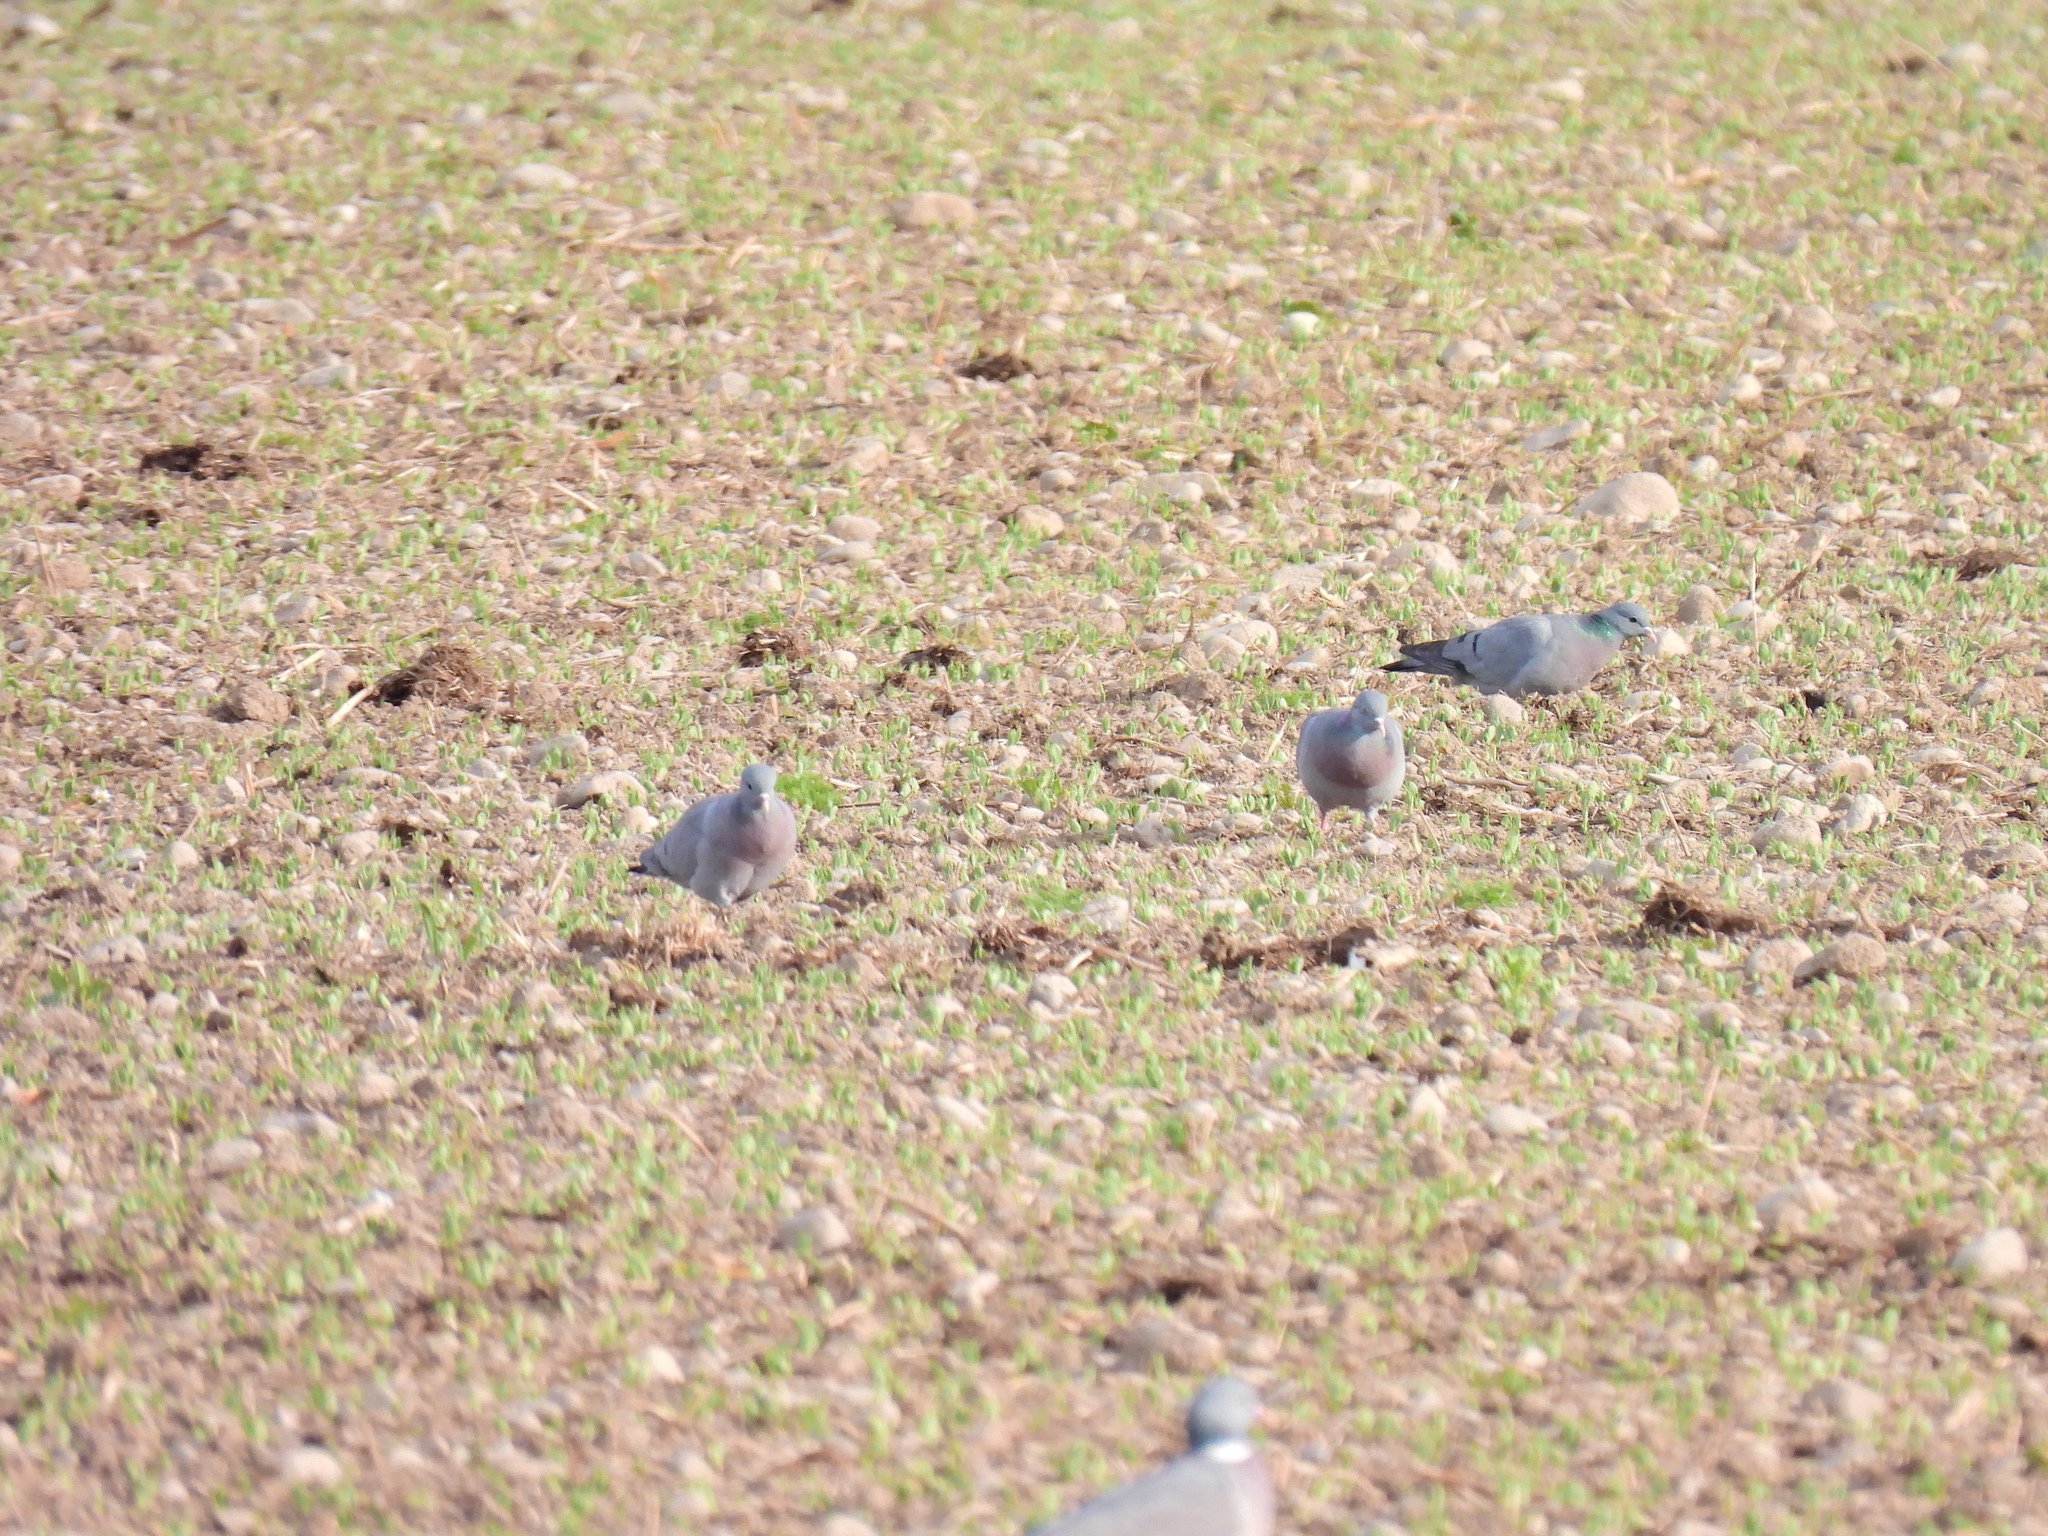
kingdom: Animalia
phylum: Chordata
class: Aves
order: Columbiformes
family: Columbidae
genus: Columba
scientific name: Columba oenas
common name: Stock dove
